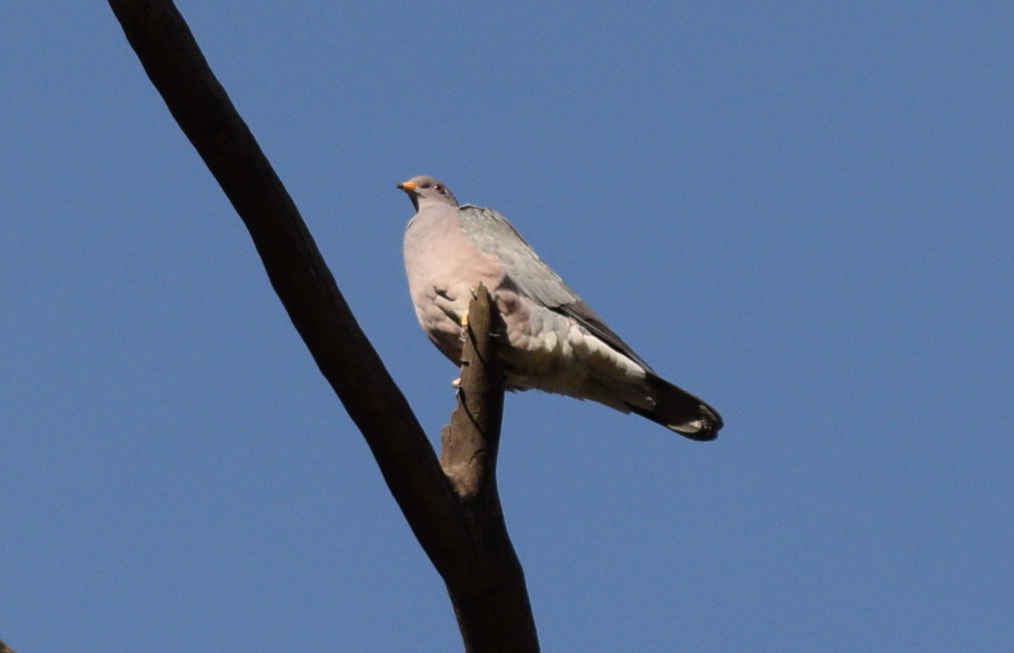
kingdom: Animalia
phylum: Chordata
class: Aves
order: Columbiformes
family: Columbidae
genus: Patagioenas
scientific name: Patagioenas fasciata
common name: Band-tailed pigeon
